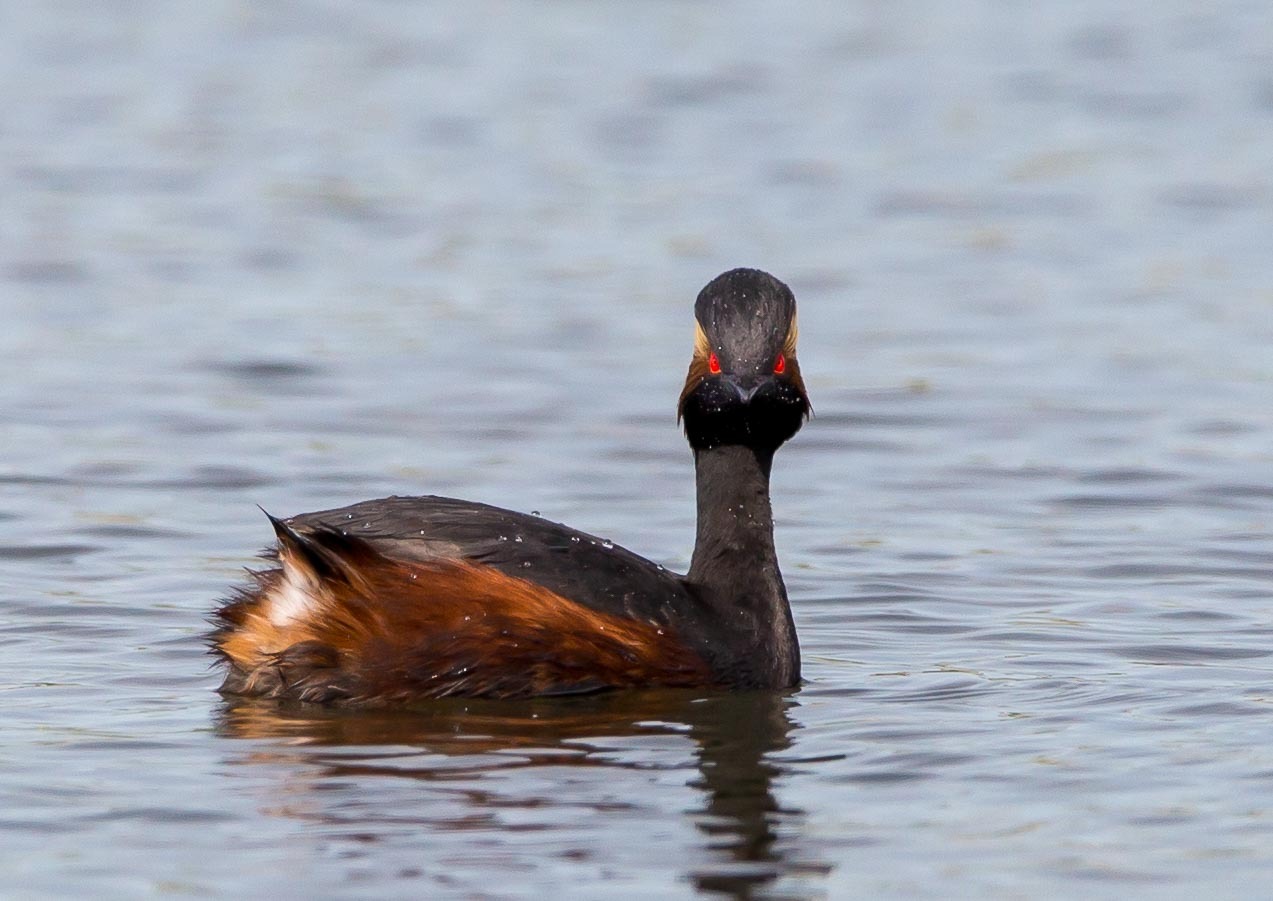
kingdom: Animalia
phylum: Chordata
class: Aves
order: Podicipediformes
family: Podicipedidae
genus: Podiceps
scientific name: Podiceps nigricollis
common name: Black-necked grebe
